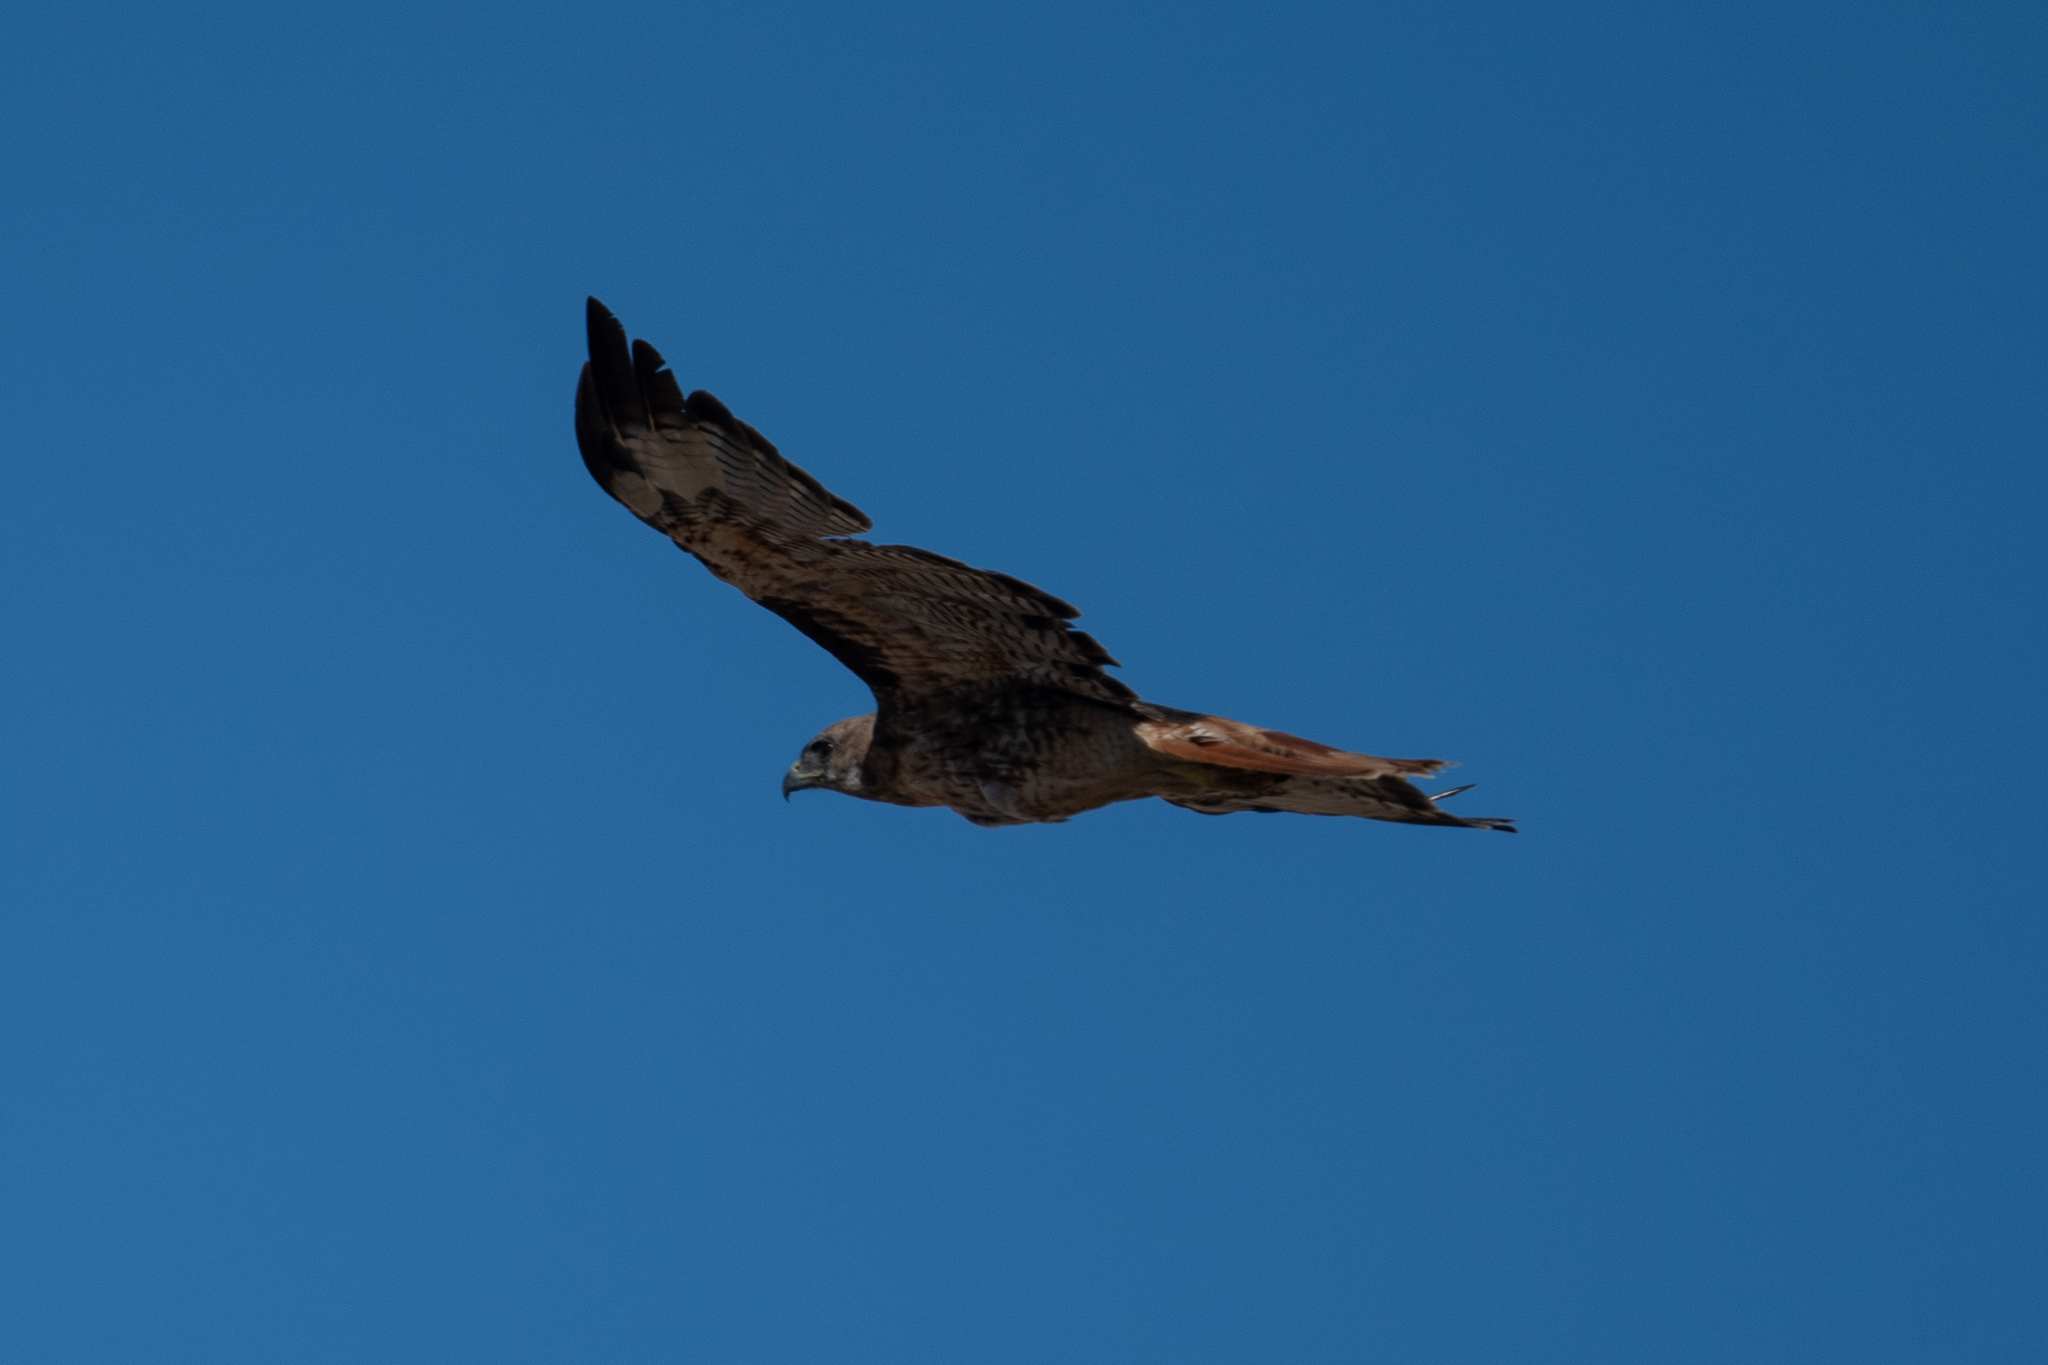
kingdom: Animalia
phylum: Chordata
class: Aves
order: Accipitriformes
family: Accipitridae
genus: Buteo
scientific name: Buteo jamaicensis
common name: Red-tailed hawk
